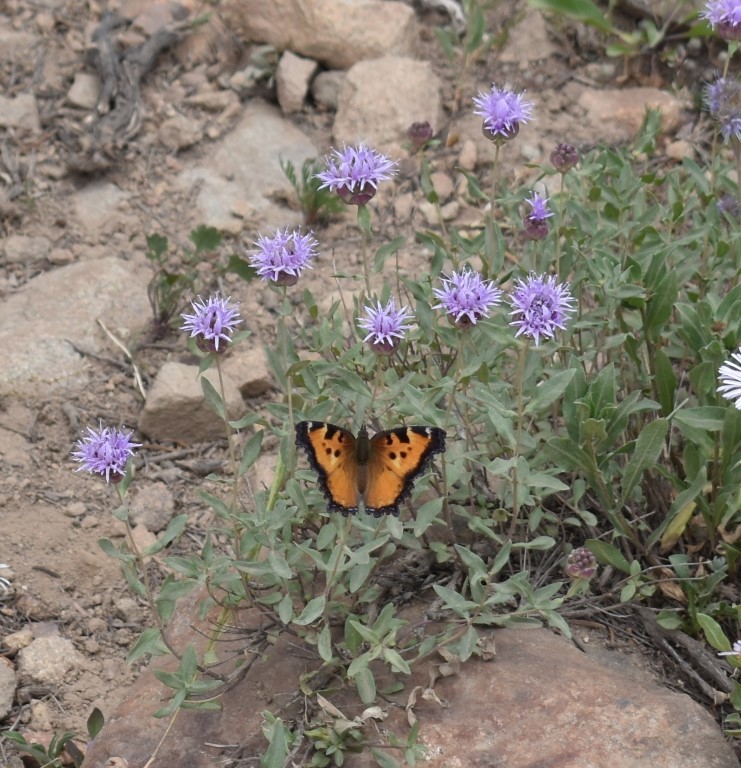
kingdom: Animalia
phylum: Arthropoda
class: Insecta
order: Lepidoptera
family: Nymphalidae
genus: Nymphalis
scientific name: Nymphalis californica
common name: California tortoiseshell
